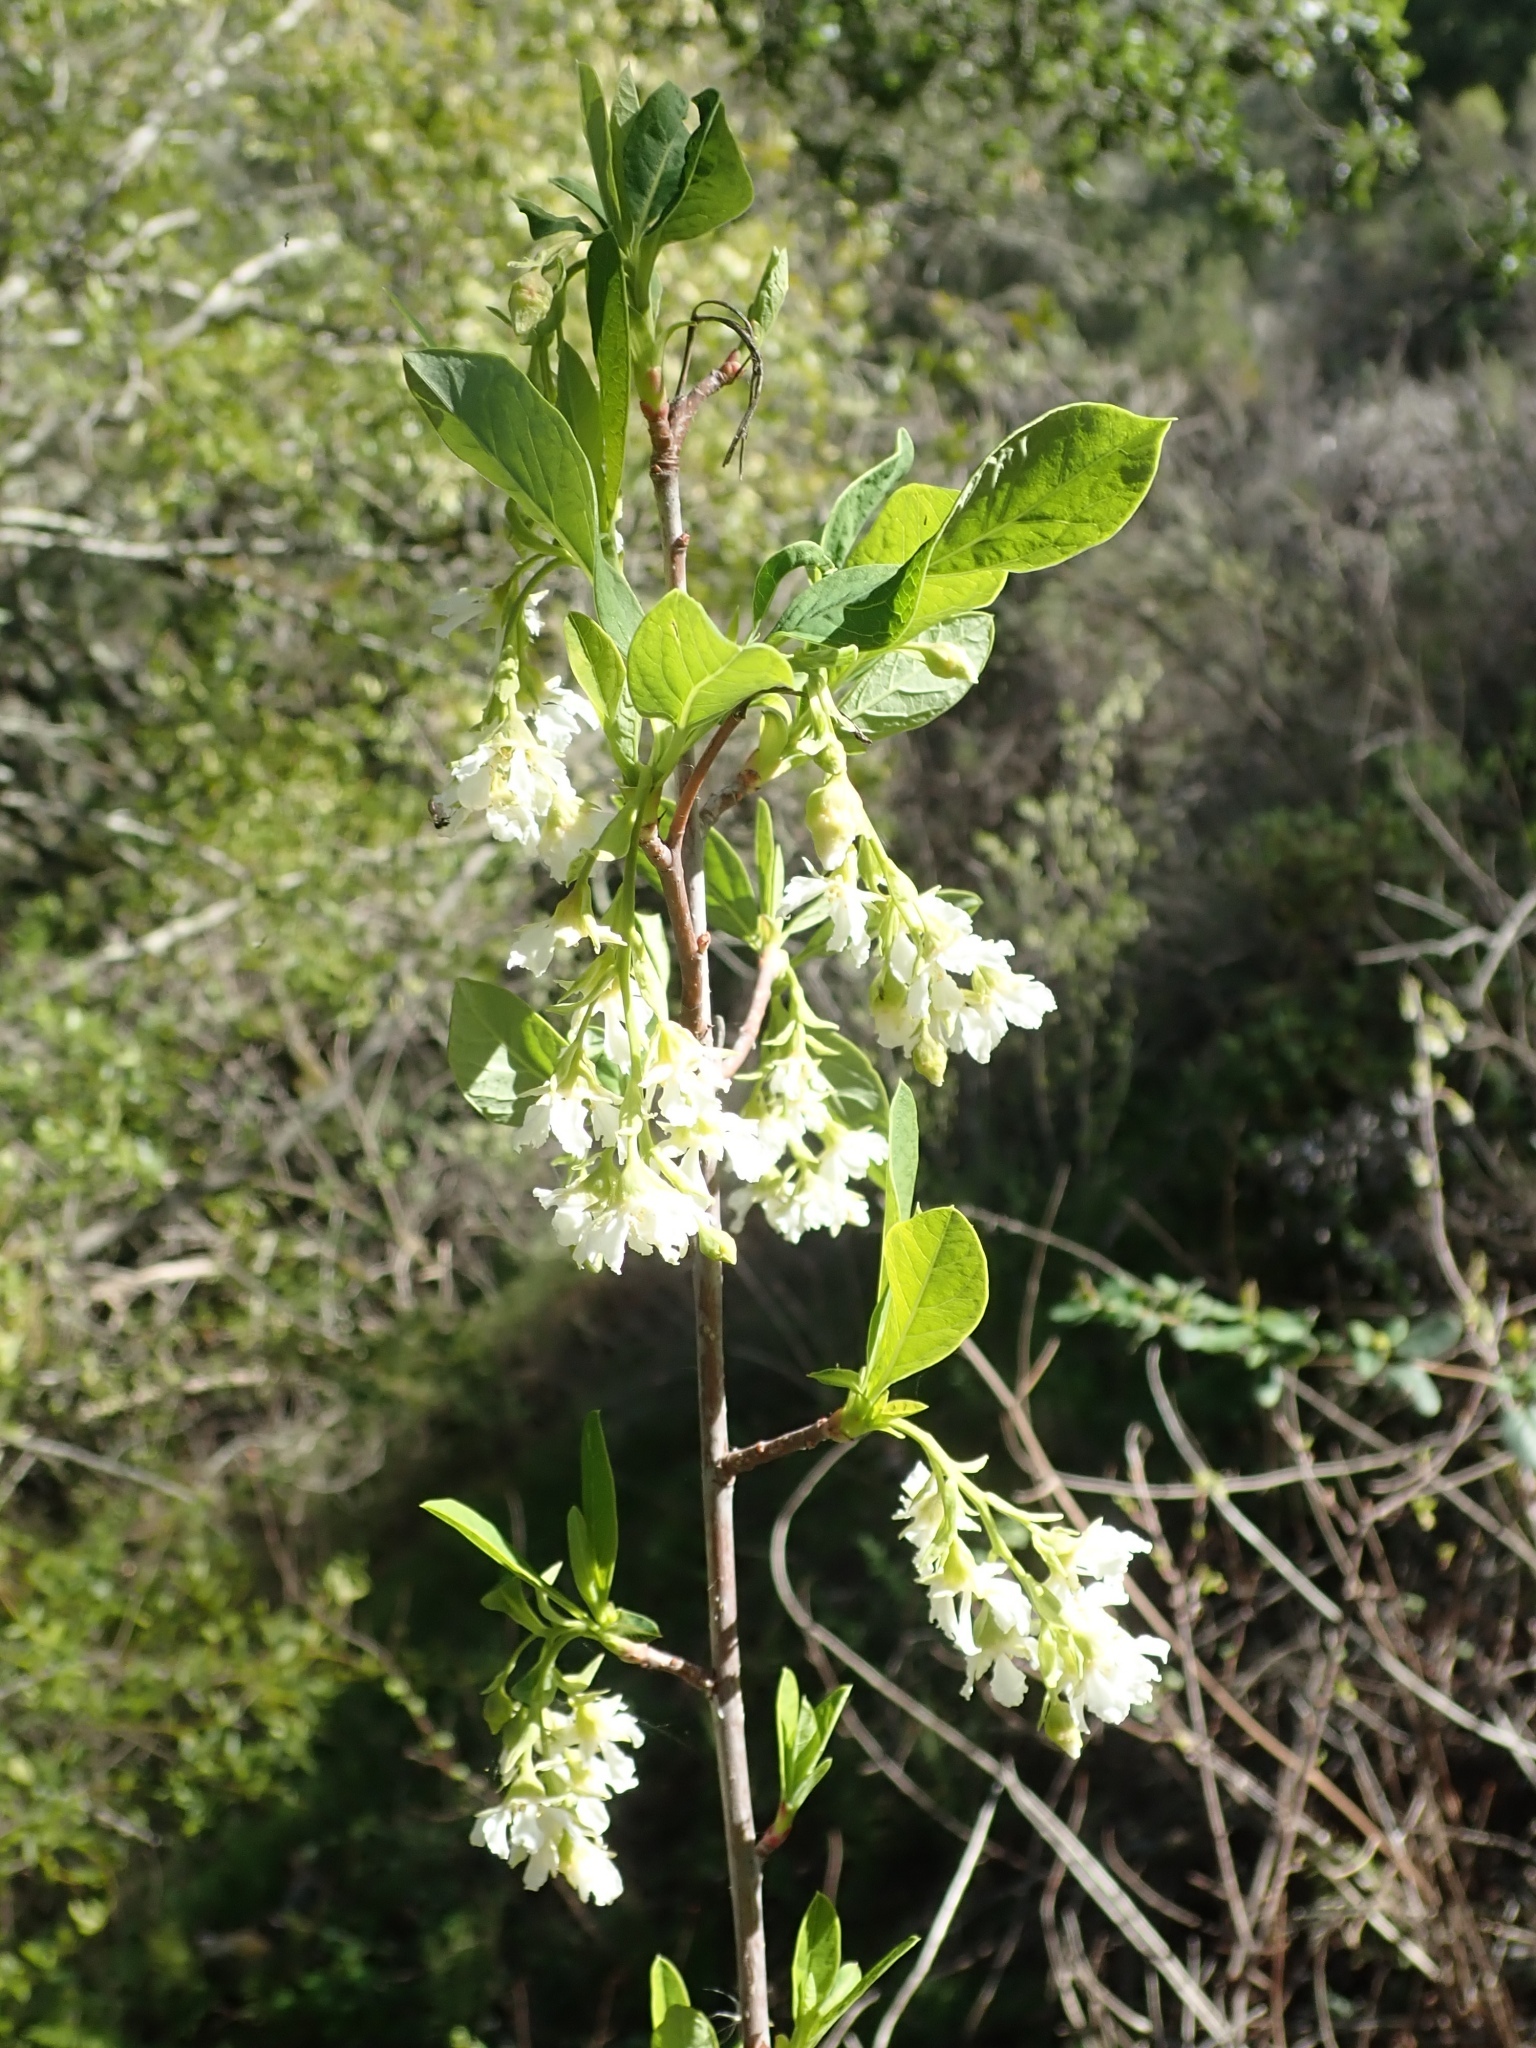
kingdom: Plantae
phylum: Tracheophyta
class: Magnoliopsida
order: Rosales
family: Rosaceae
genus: Oemleria
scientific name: Oemleria cerasiformis
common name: Osoberry
